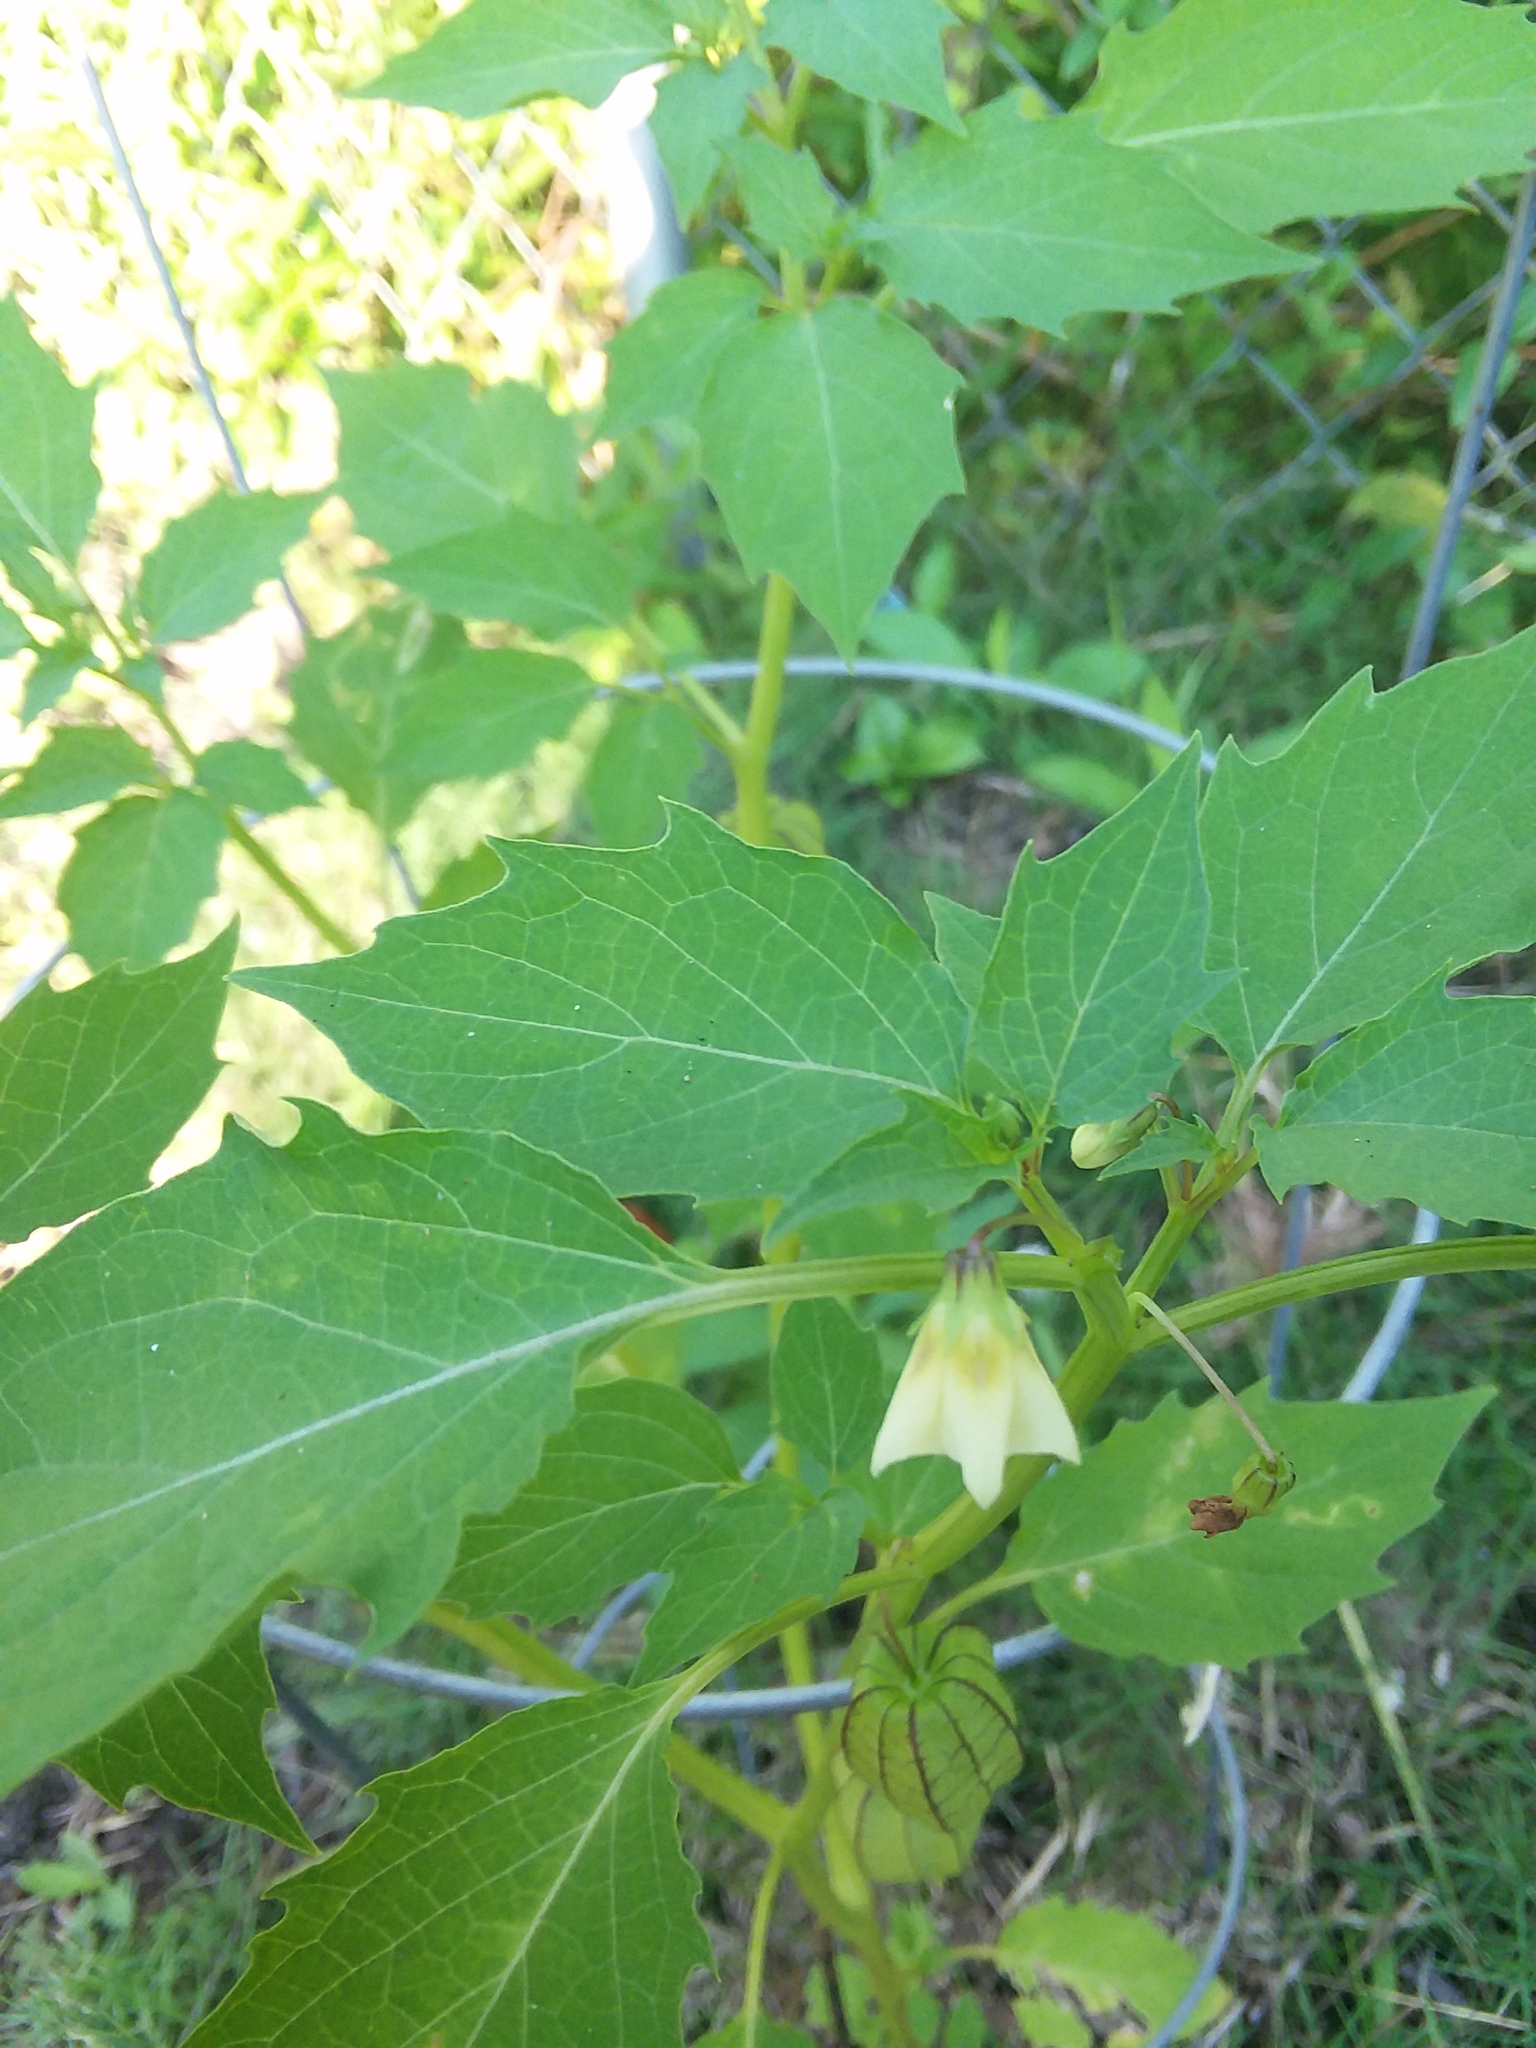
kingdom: Plantae
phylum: Tracheophyta
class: Magnoliopsida
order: Solanales
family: Solanaceae
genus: Physalis
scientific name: Physalis angulata
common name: Angular winter-cherry
